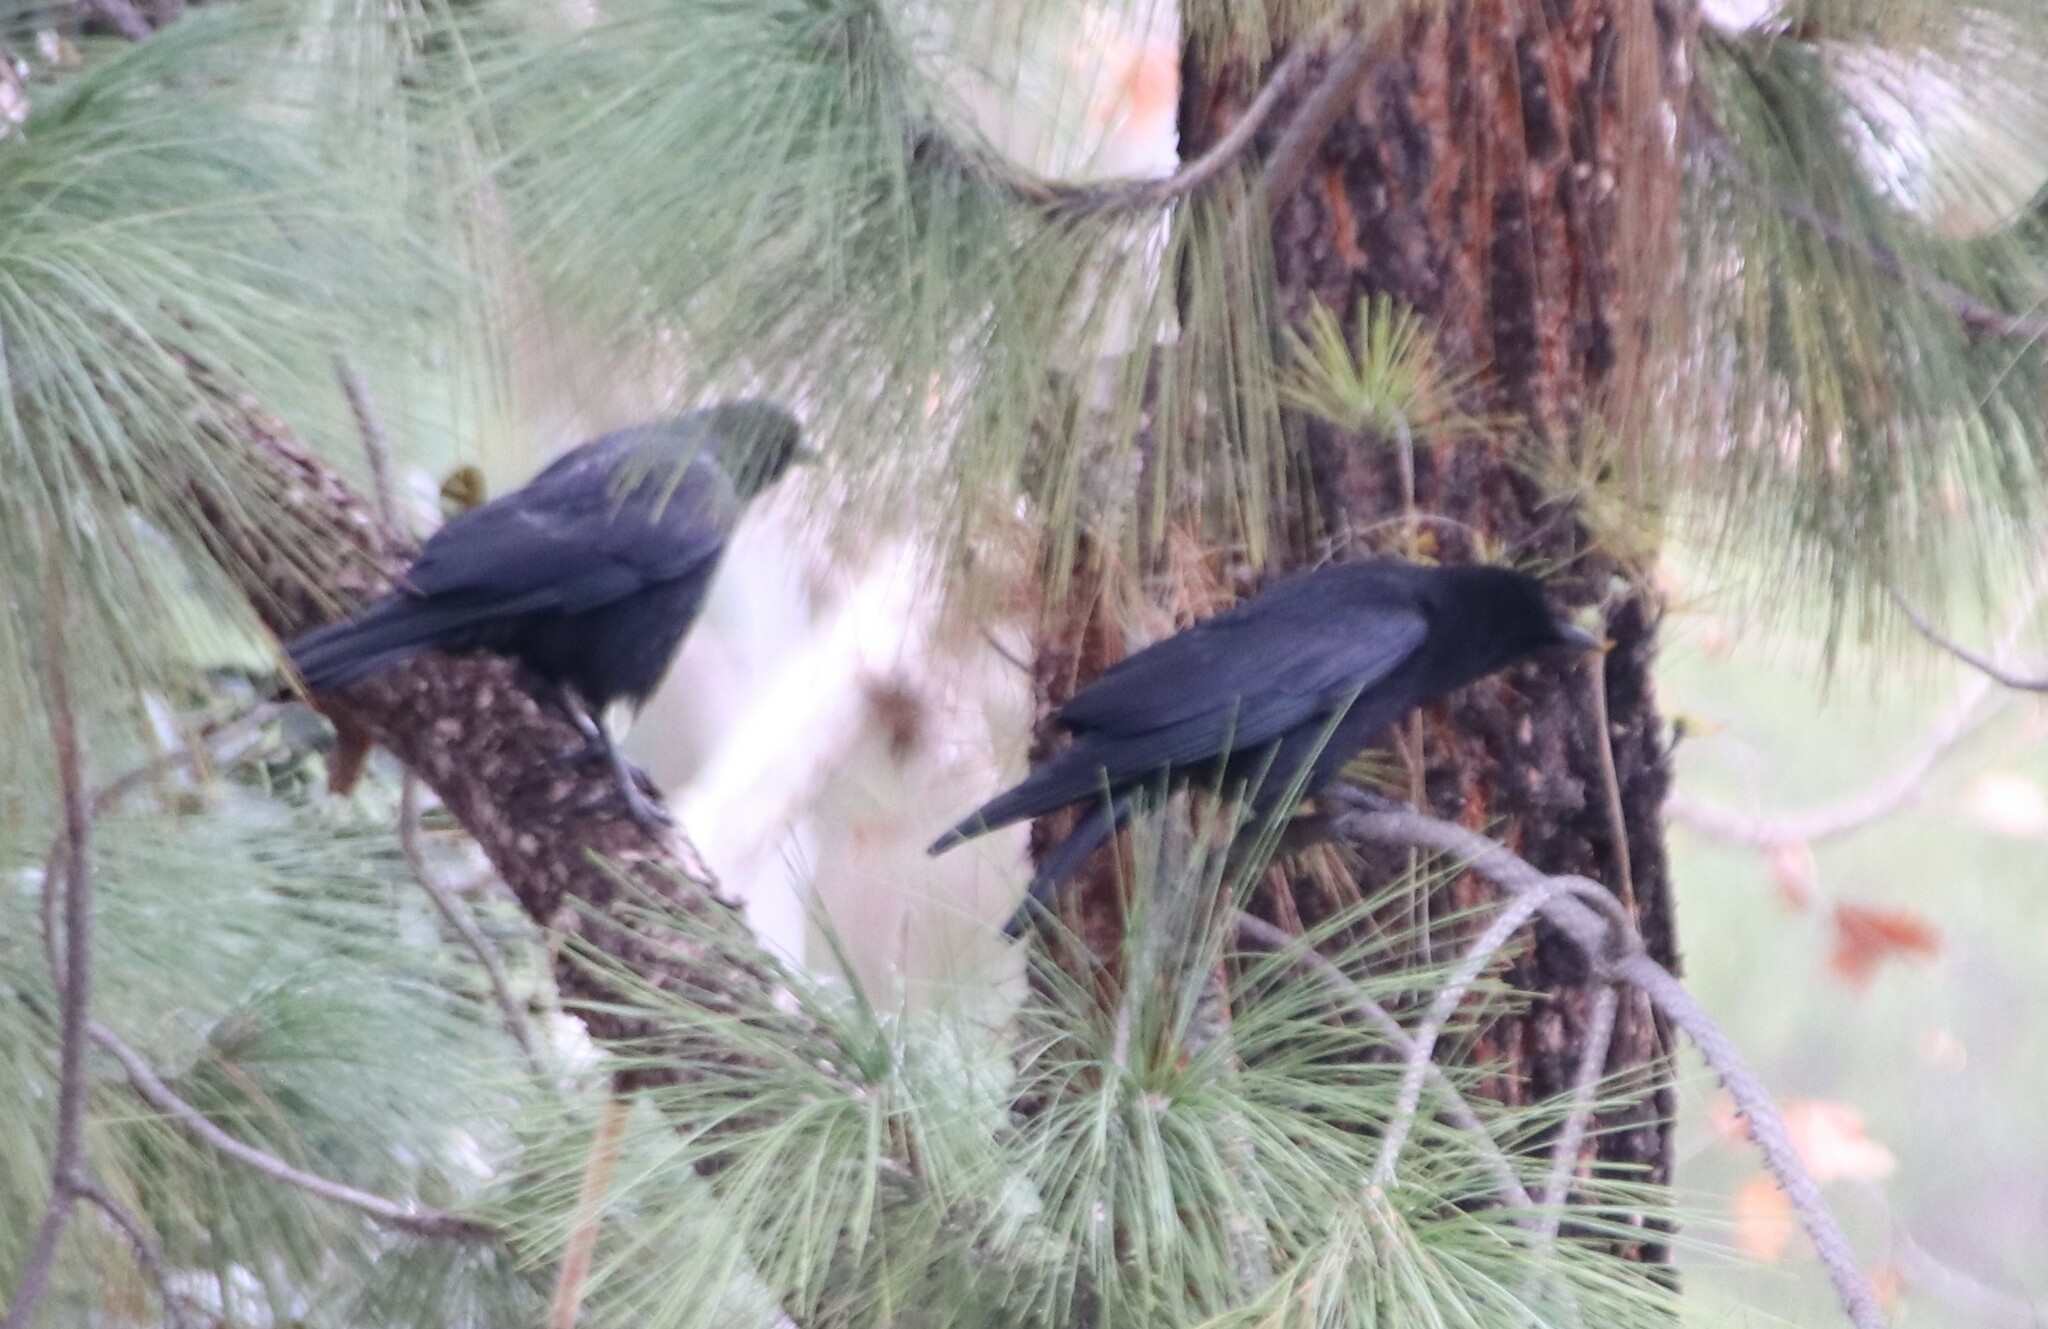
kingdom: Animalia
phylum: Chordata
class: Aves
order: Passeriformes
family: Corvidae
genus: Corvus
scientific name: Corvus brachyrhynchos
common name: American crow
